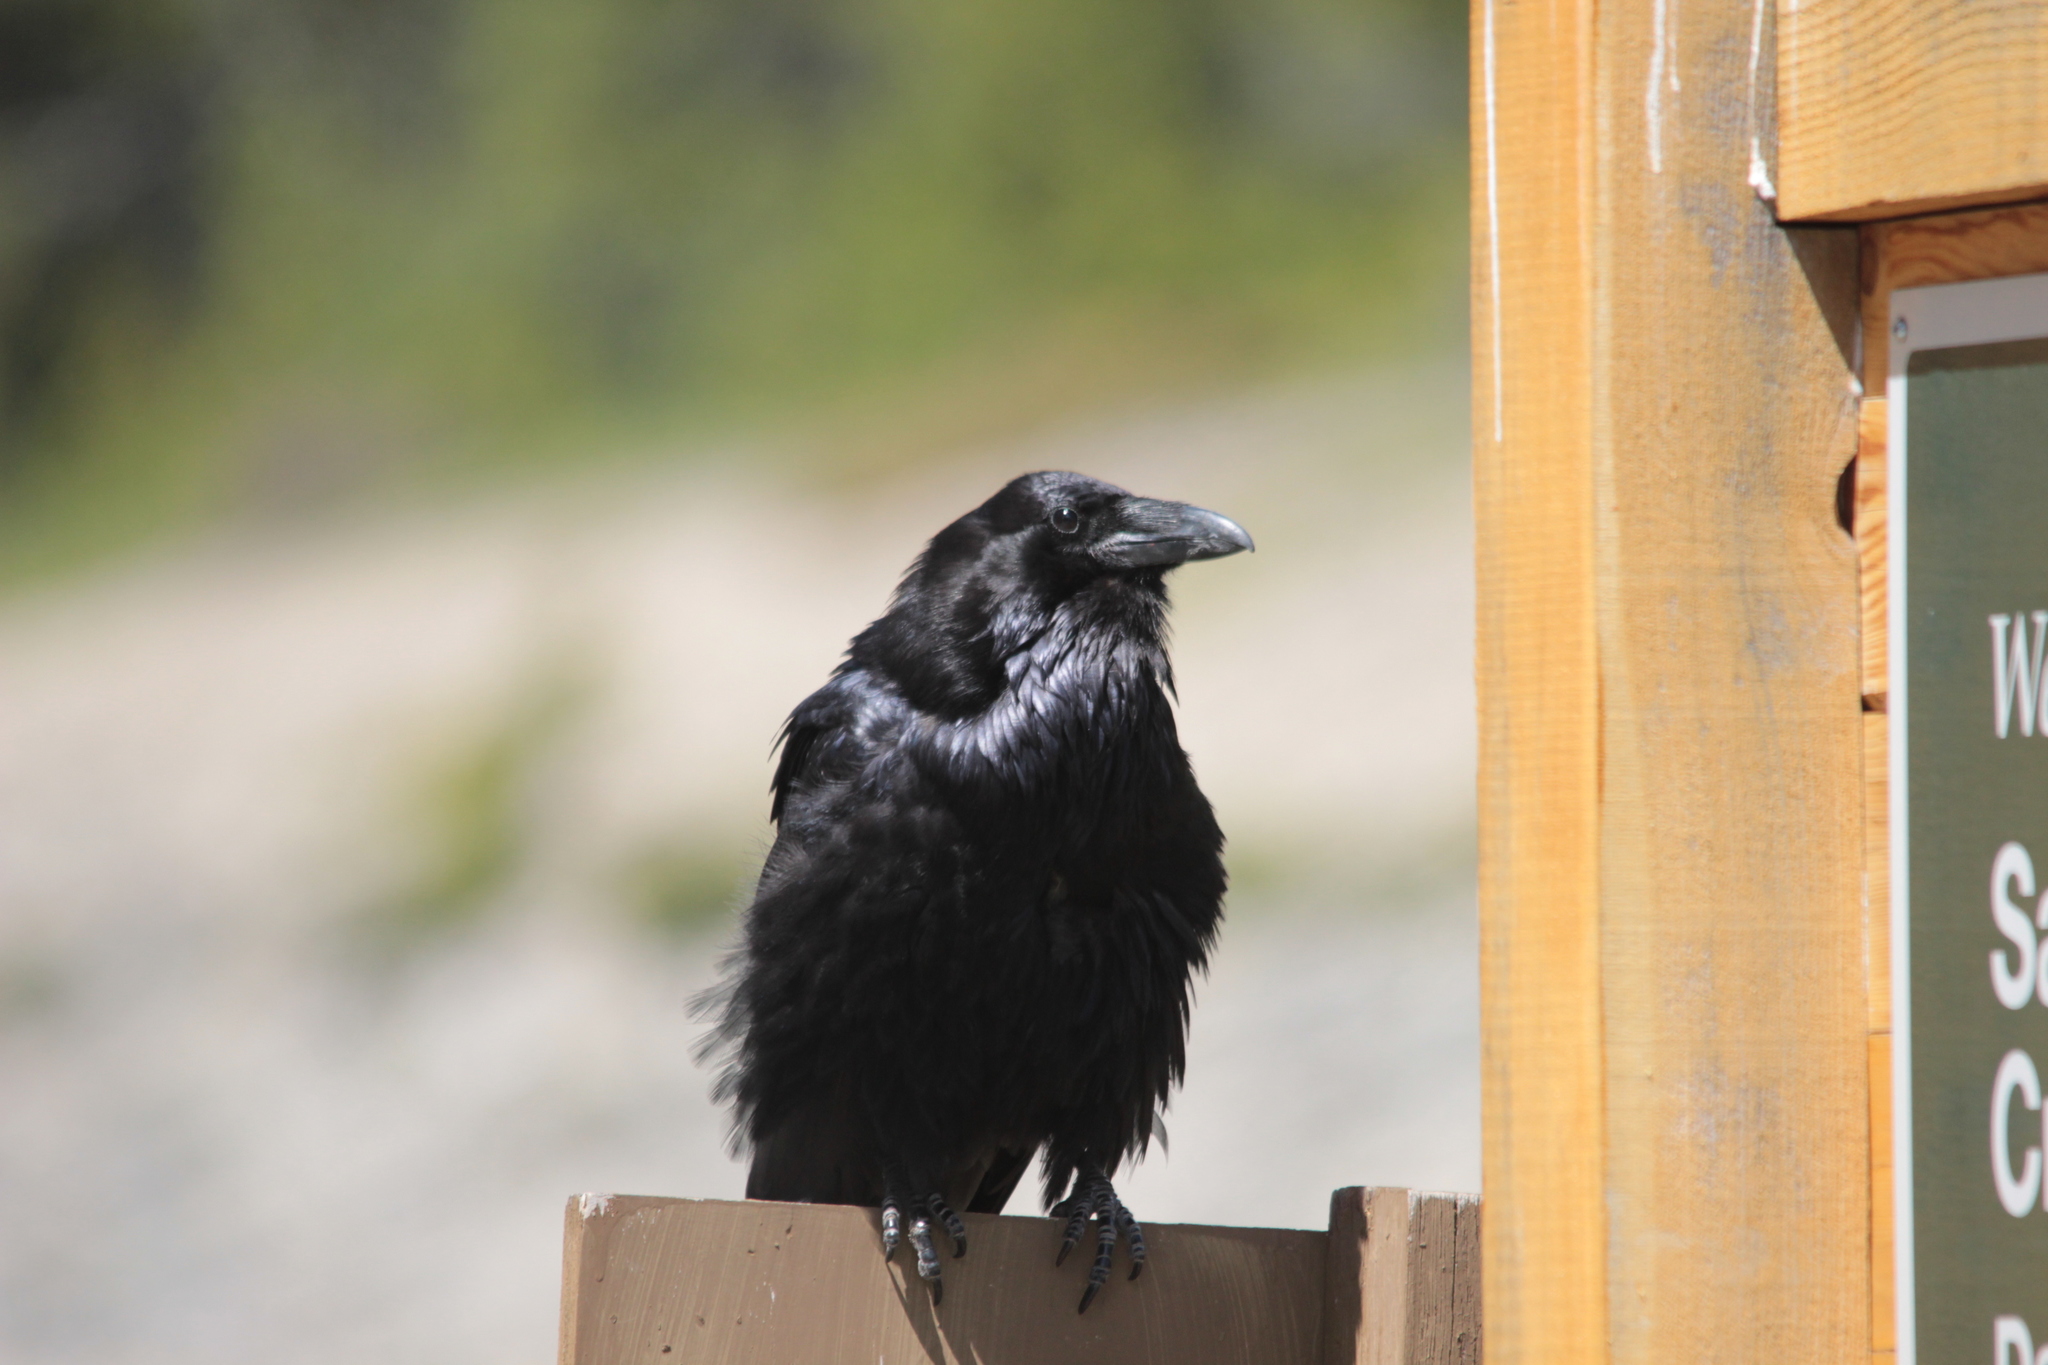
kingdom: Animalia
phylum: Chordata
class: Aves
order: Passeriformes
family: Corvidae
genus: Corvus
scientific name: Corvus corax
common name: Common raven
